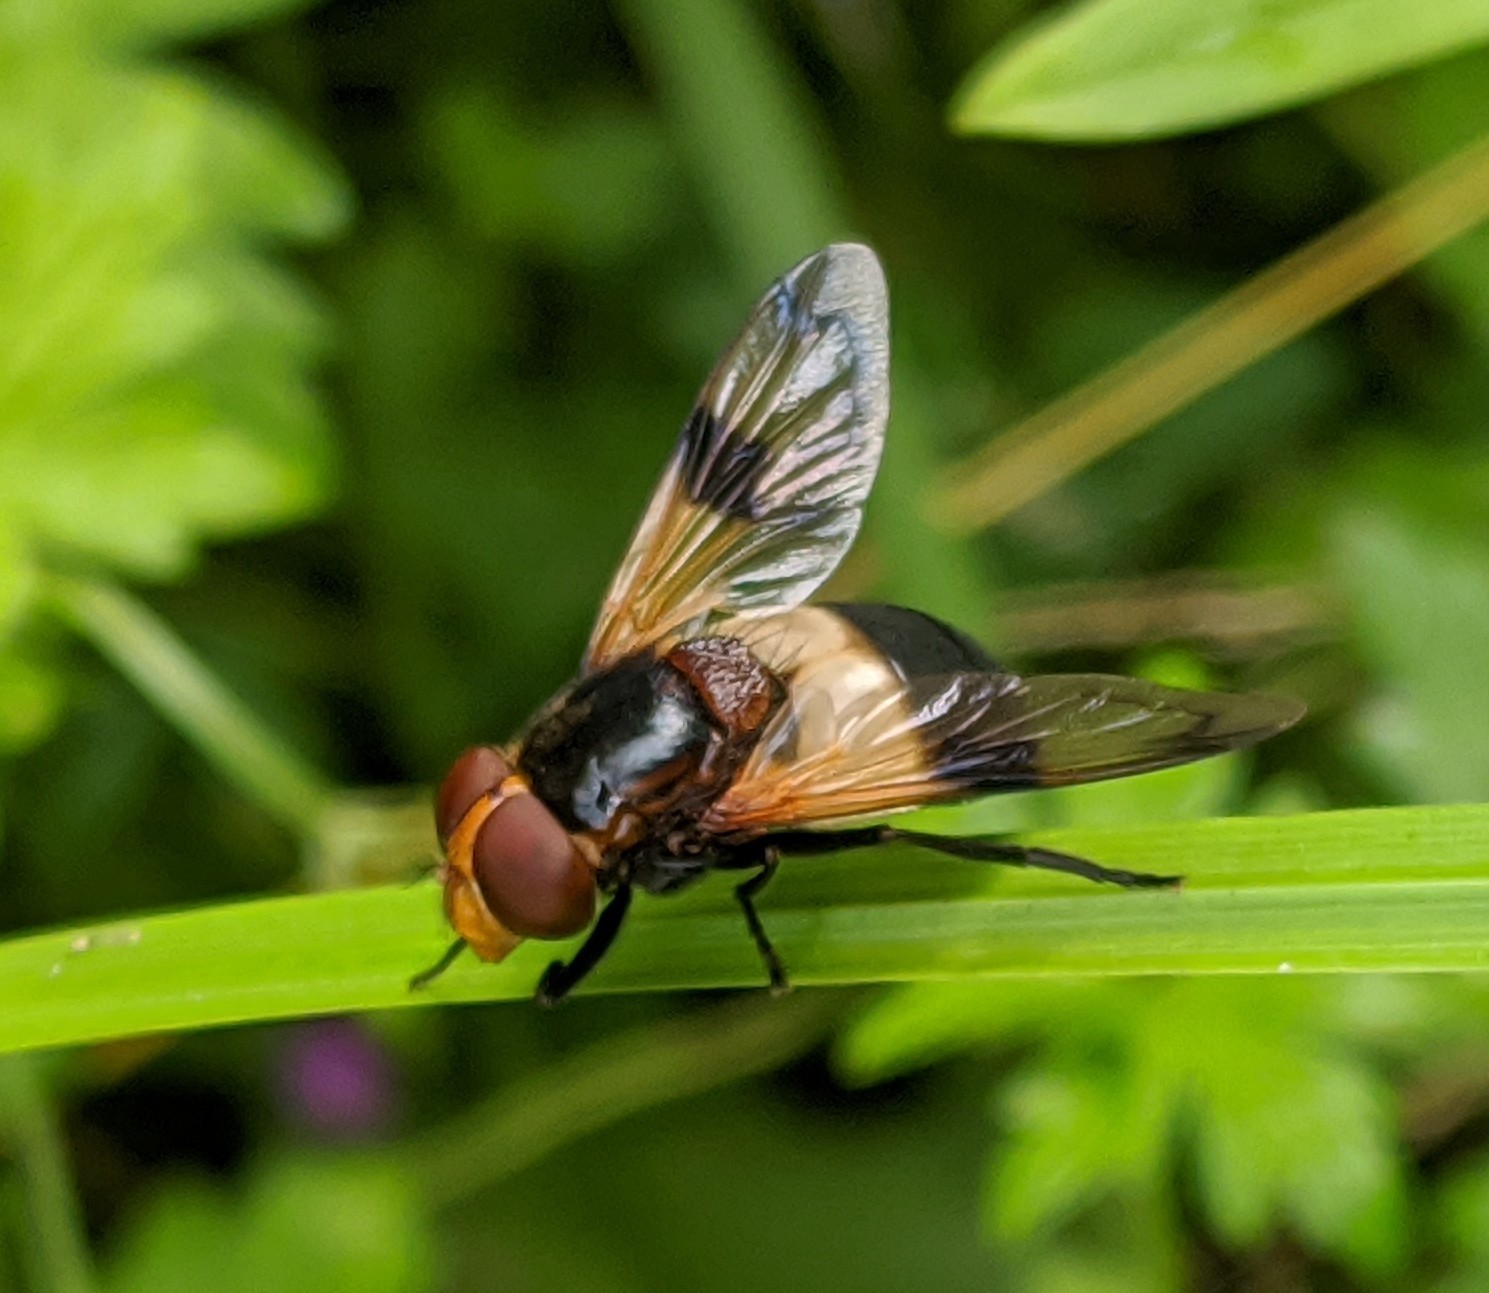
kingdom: Animalia
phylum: Arthropoda
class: Insecta
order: Diptera
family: Syrphidae
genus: Volucella
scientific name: Volucella pellucens
